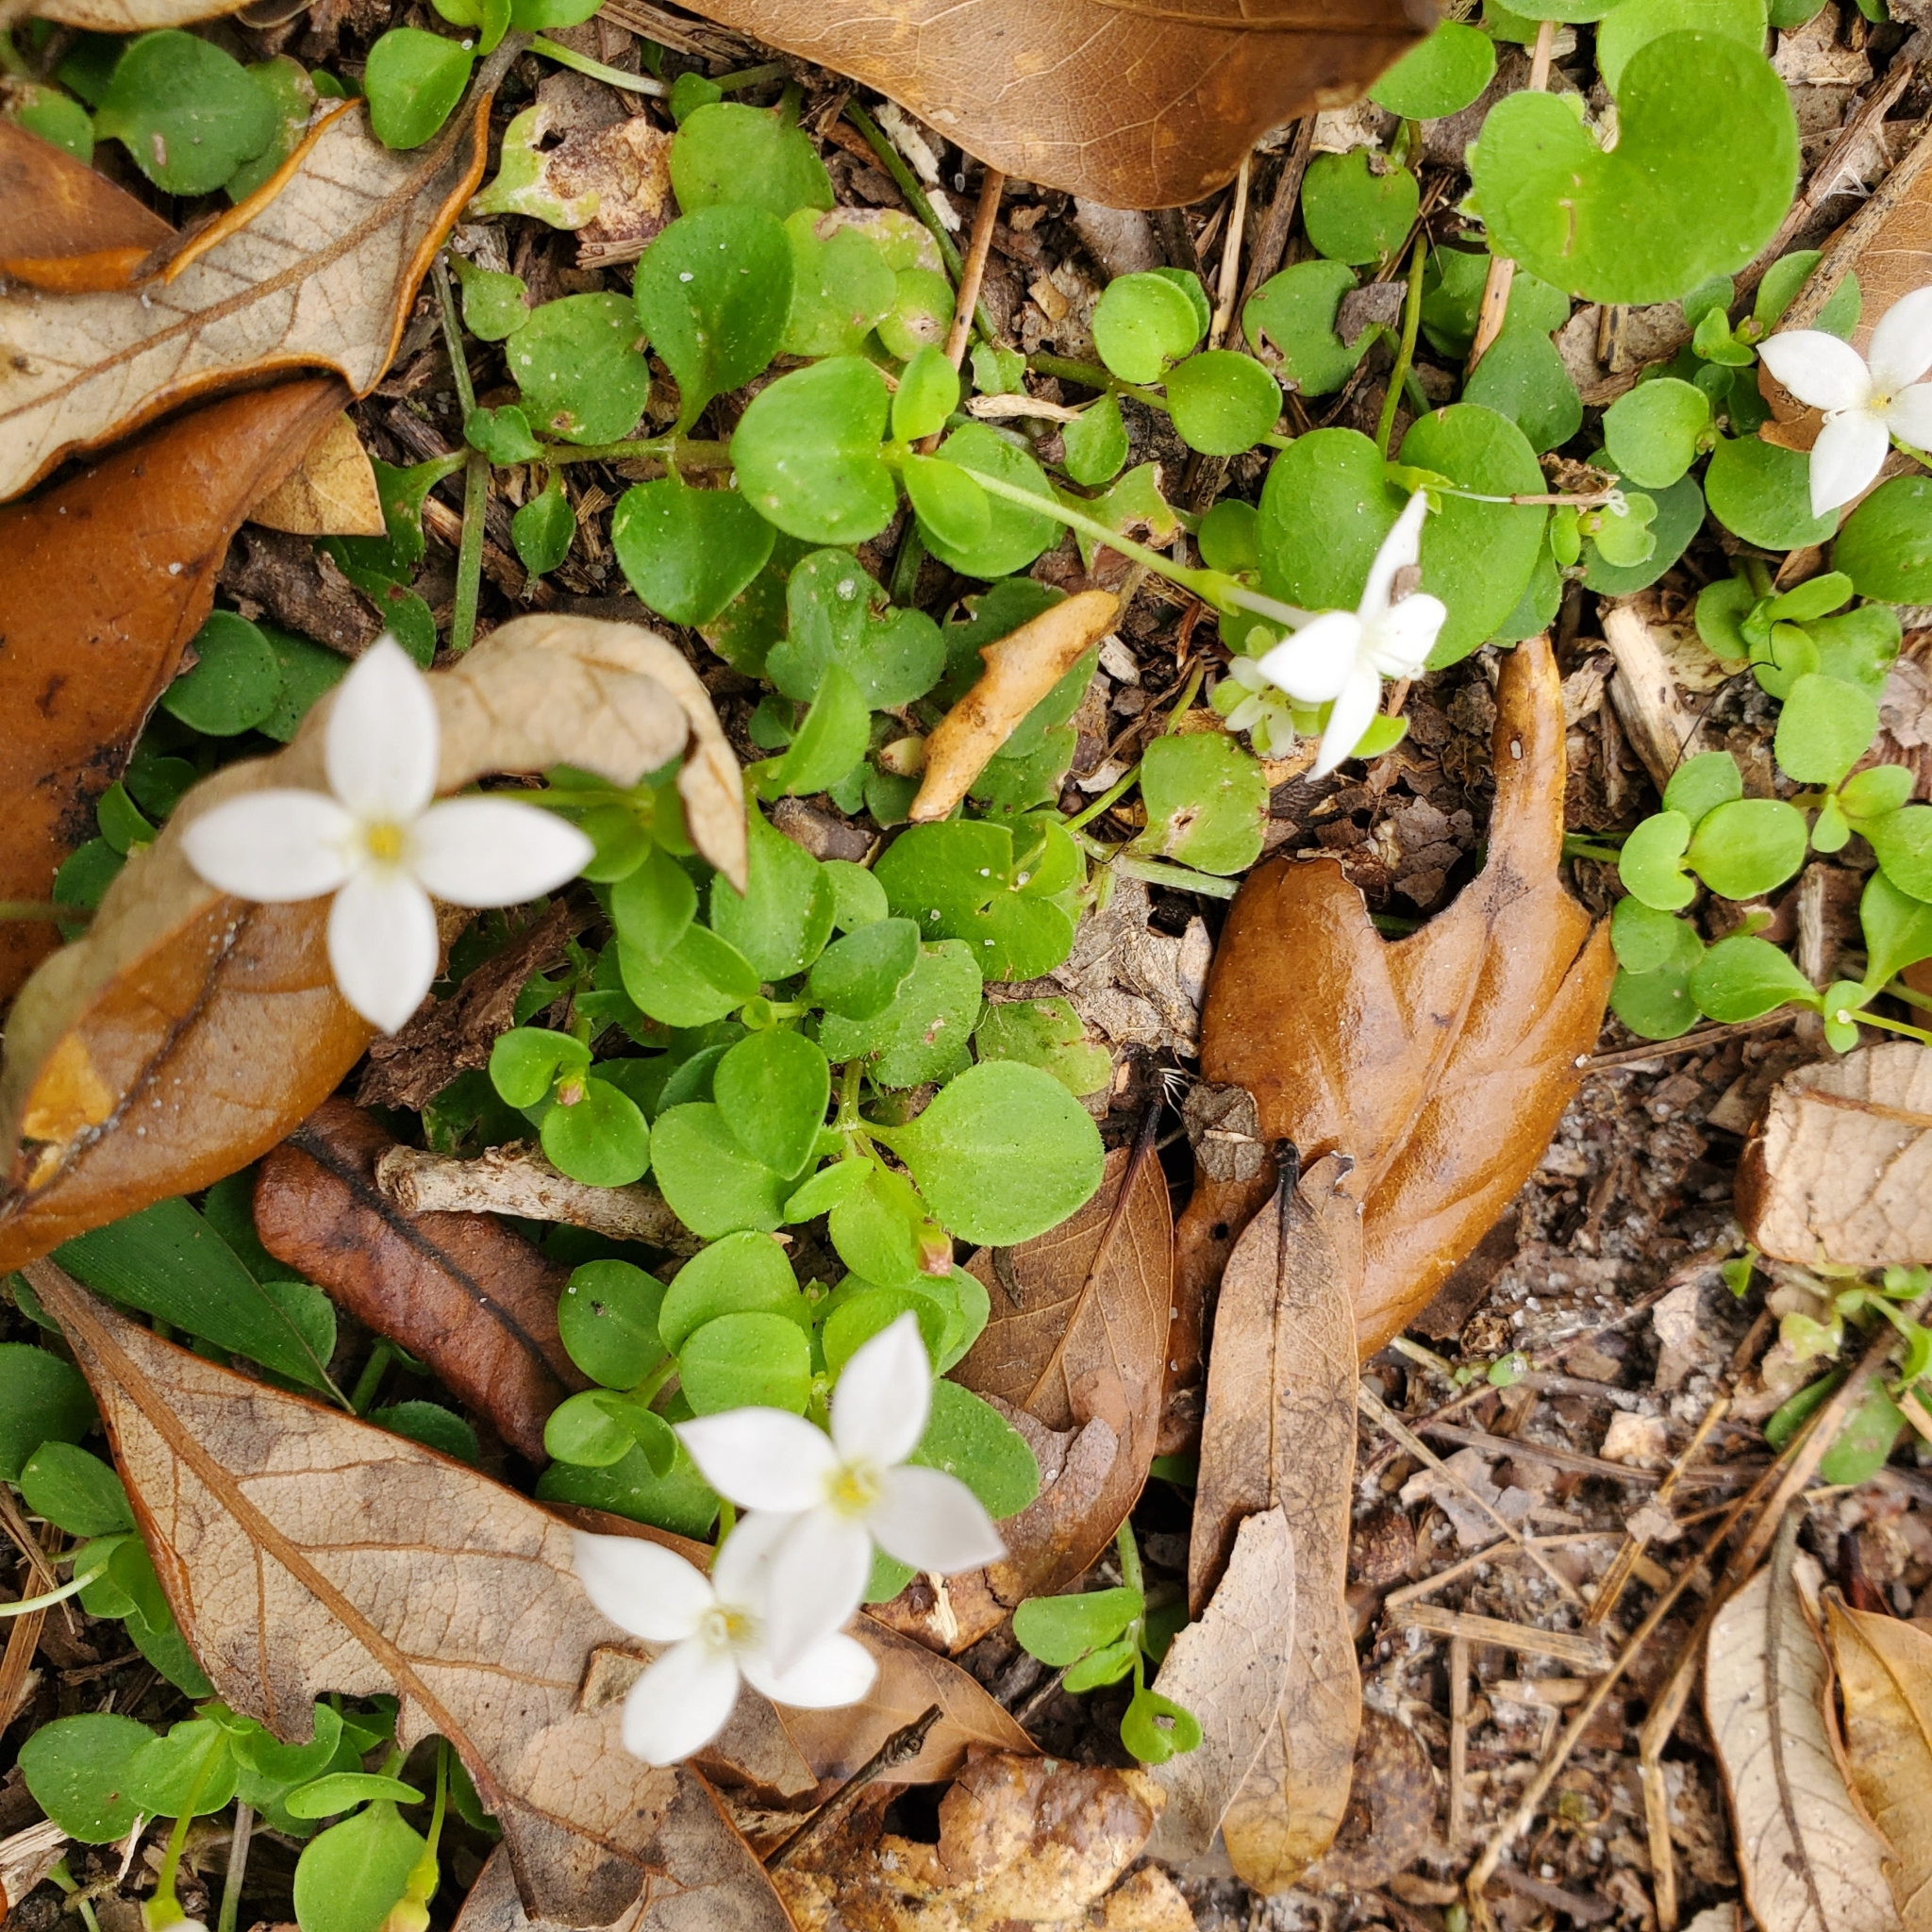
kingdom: Plantae
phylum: Tracheophyta
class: Magnoliopsida
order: Gentianales
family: Rubiaceae
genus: Houstonia
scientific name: Houstonia procumbens
